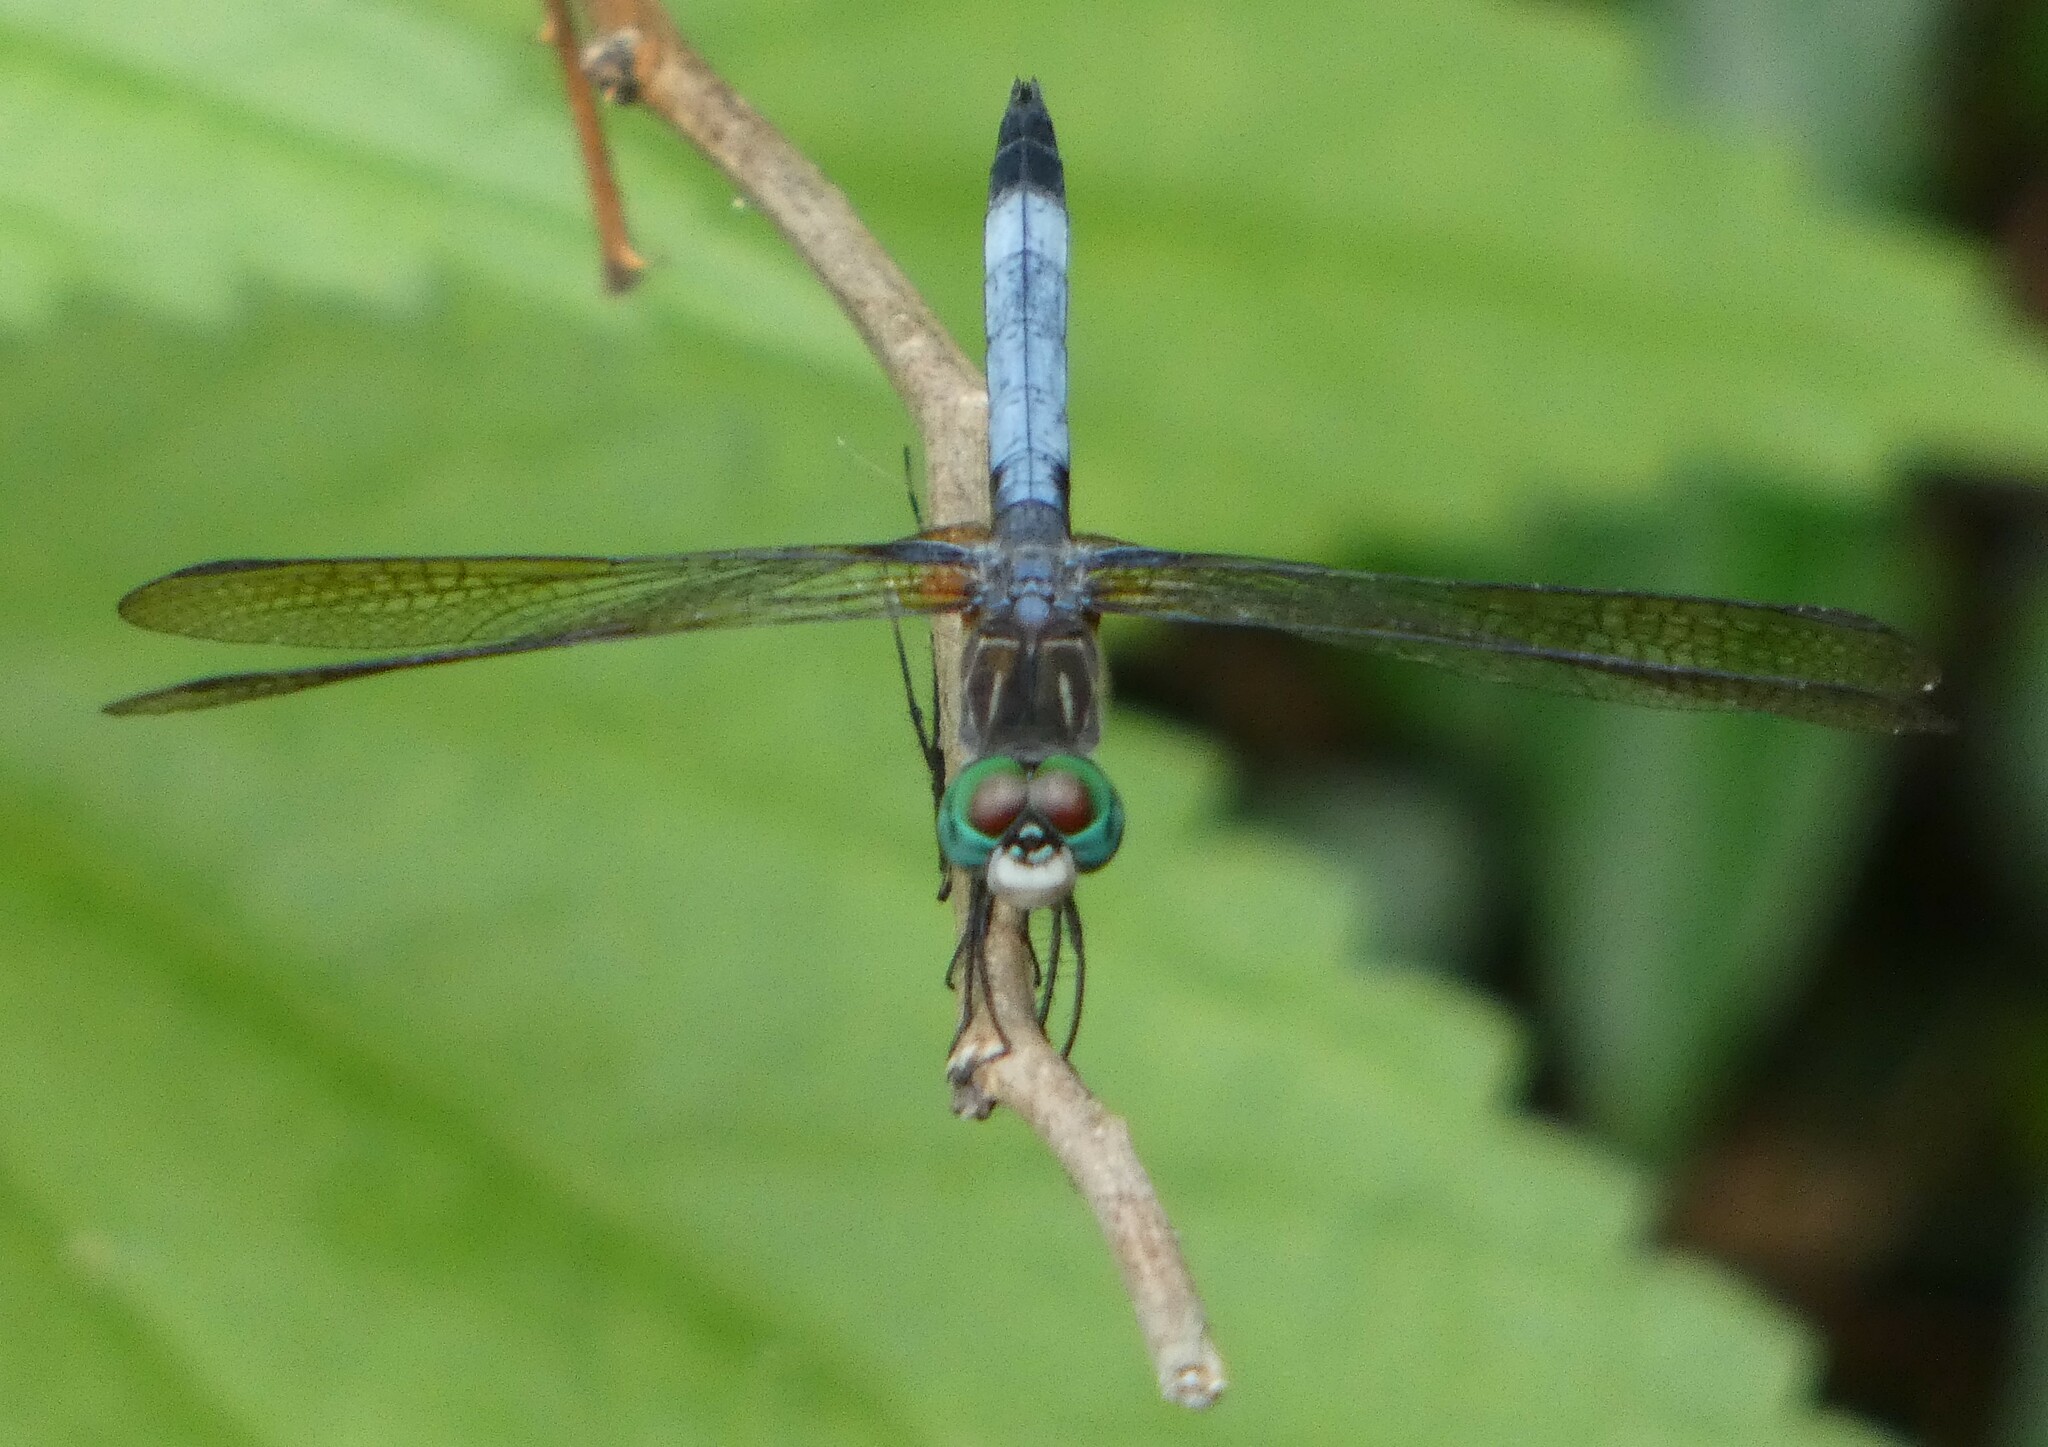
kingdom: Animalia
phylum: Arthropoda
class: Insecta
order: Odonata
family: Libellulidae
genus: Pachydiplax
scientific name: Pachydiplax longipennis
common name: Blue dasher
